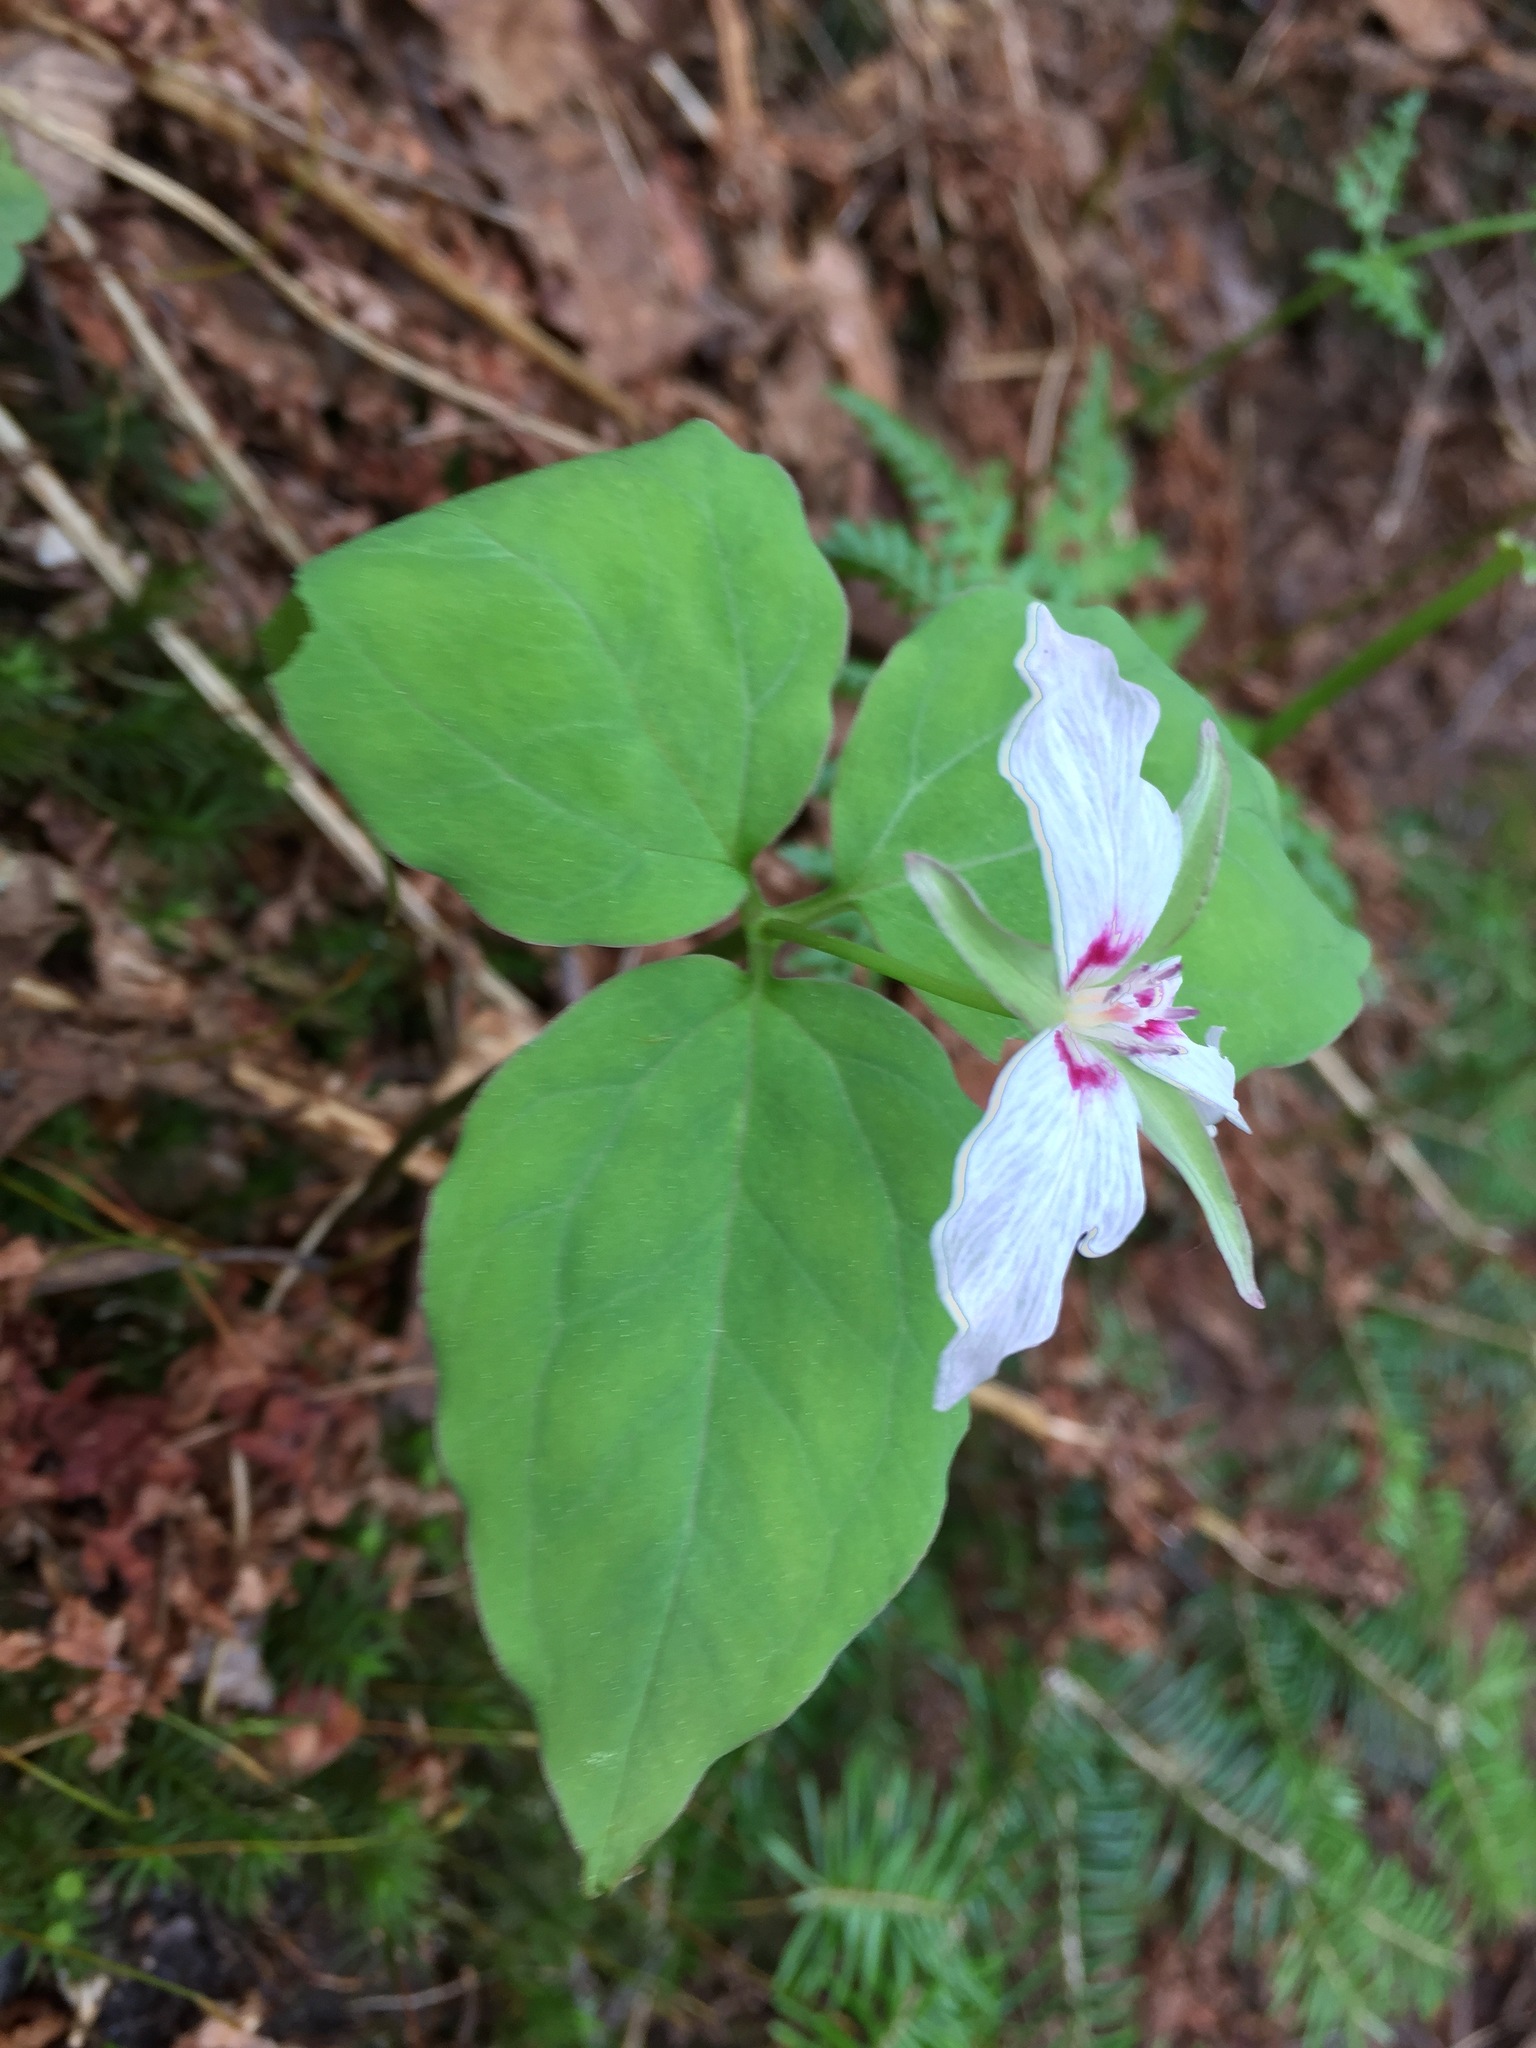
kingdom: Plantae
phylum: Tracheophyta
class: Liliopsida
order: Liliales
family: Melanthiaceae
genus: Trillium
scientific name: Trillium undulatum
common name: Paint trillium
